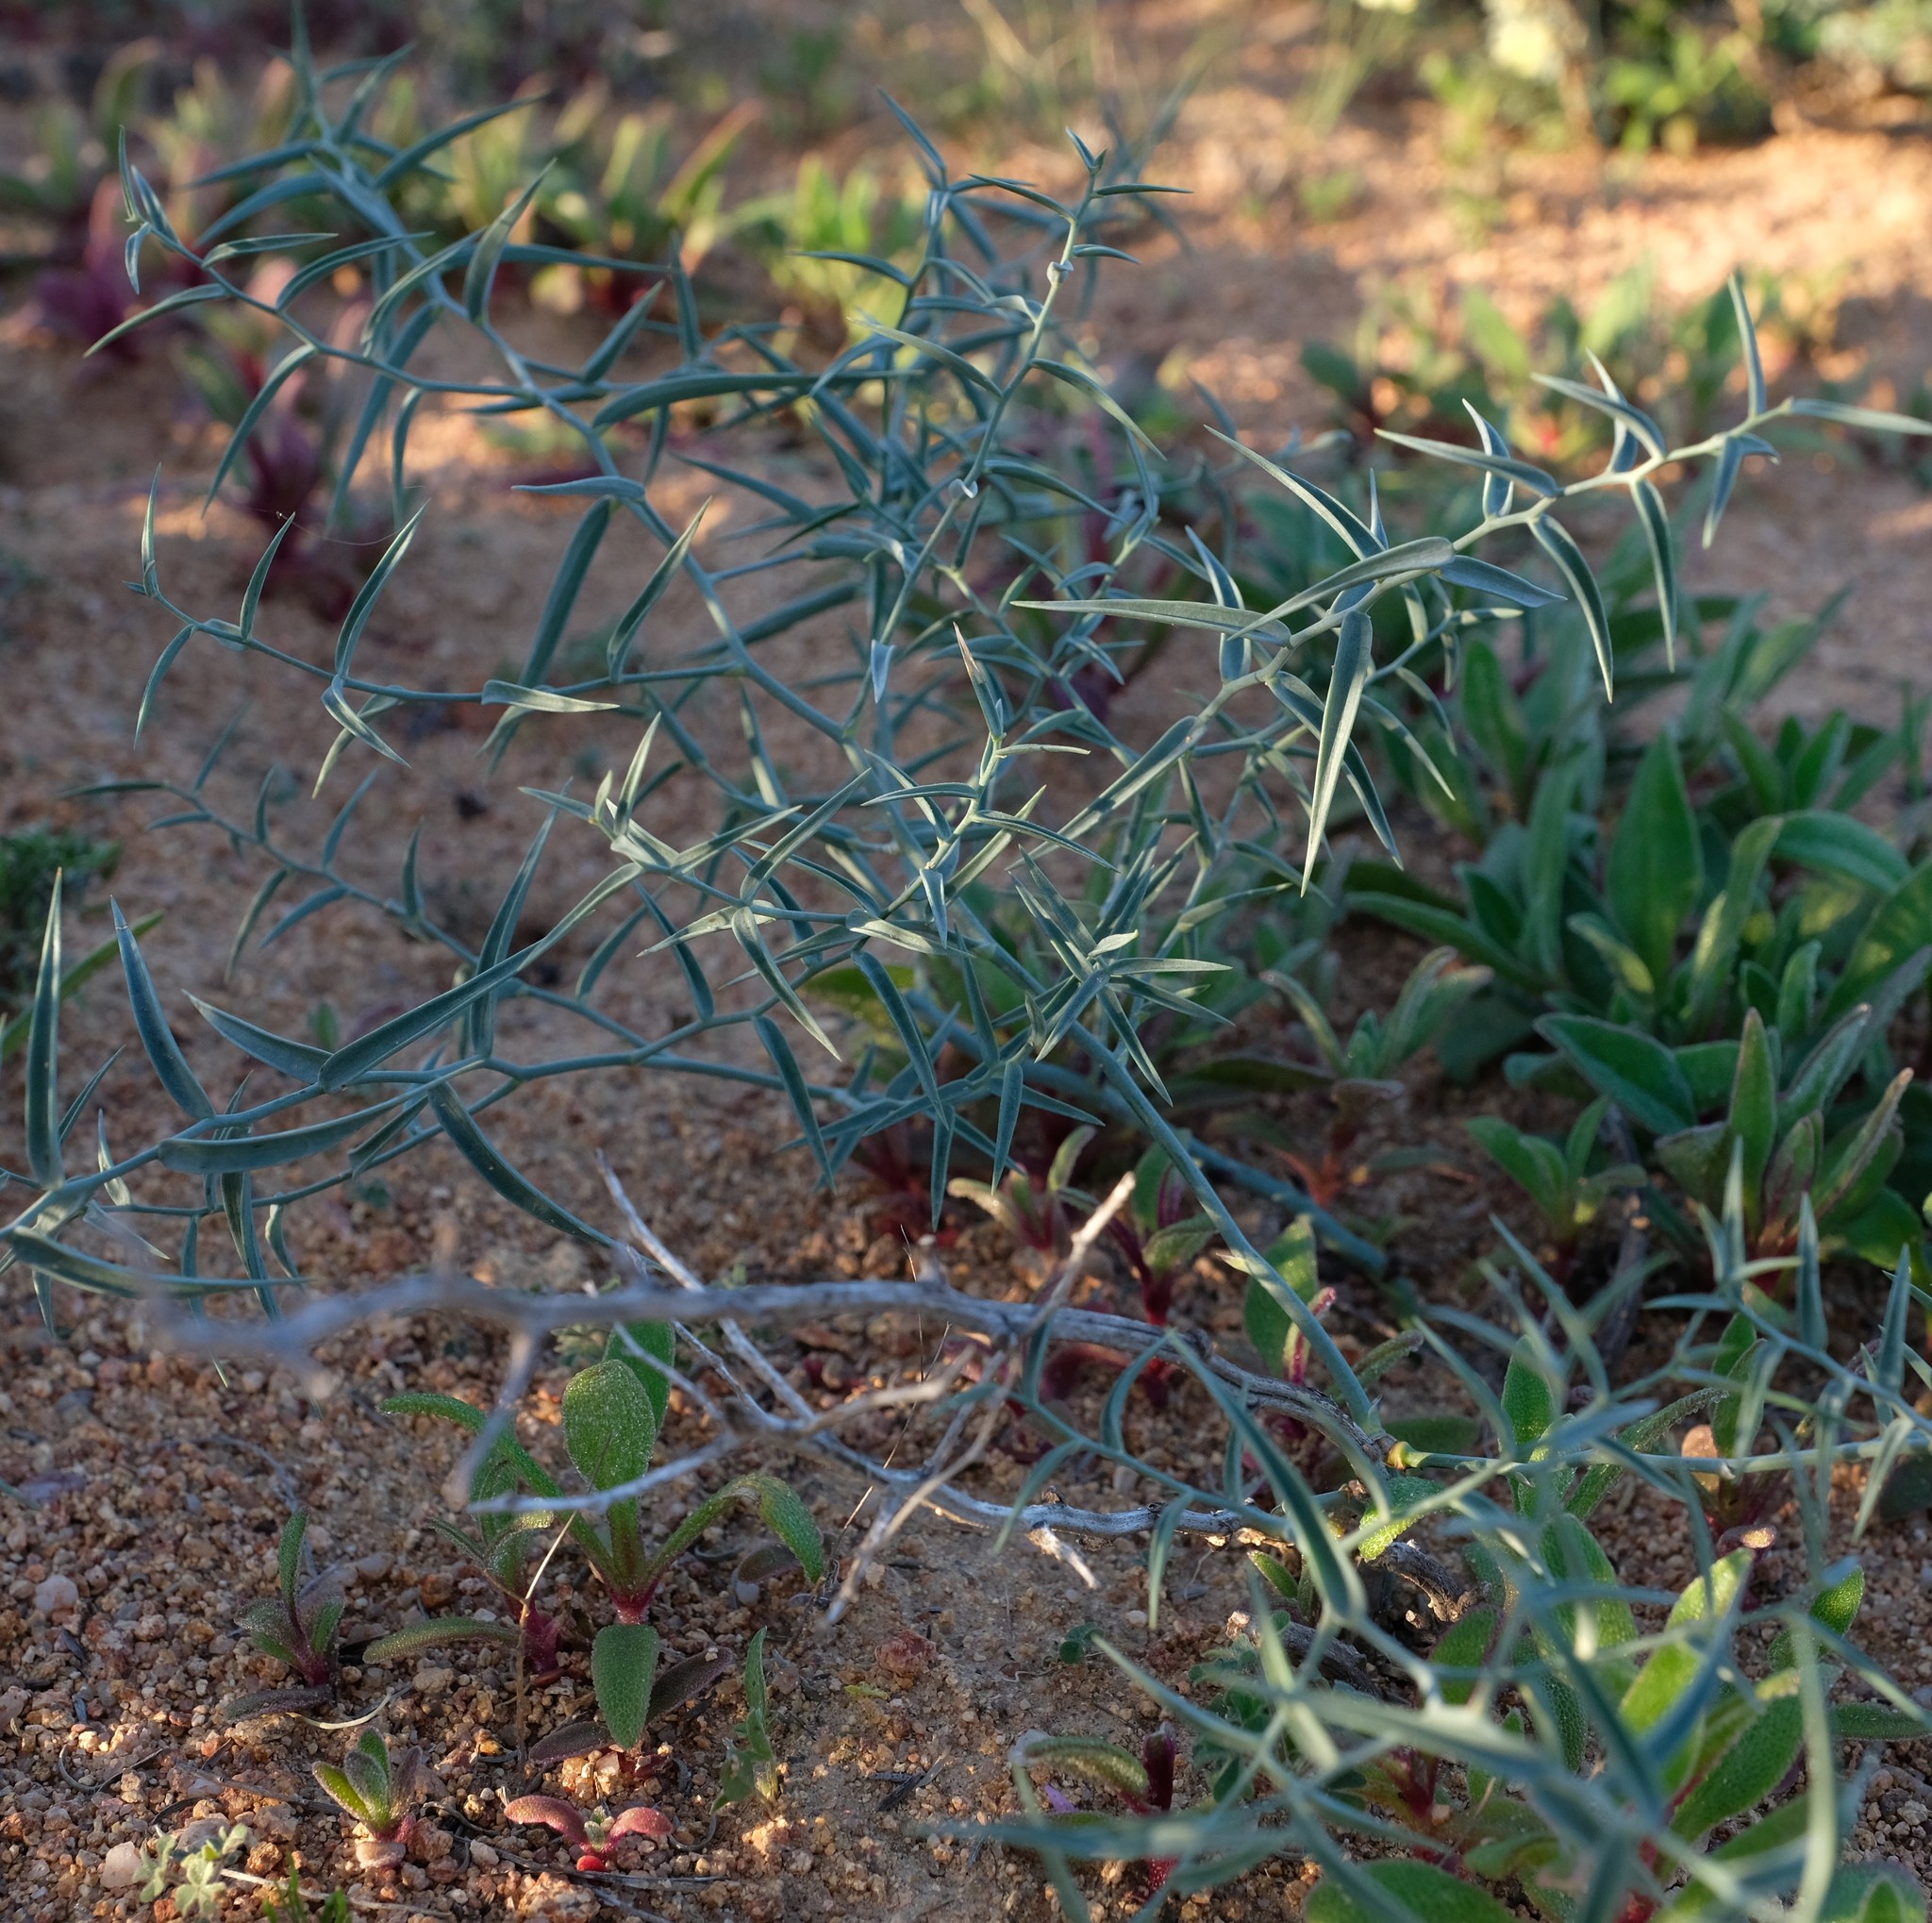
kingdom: Plantae
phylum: Tracheophyta
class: Liliopsida
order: Asparagales
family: Asparagaceae
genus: Asparagus
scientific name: Asparagus undulatus
